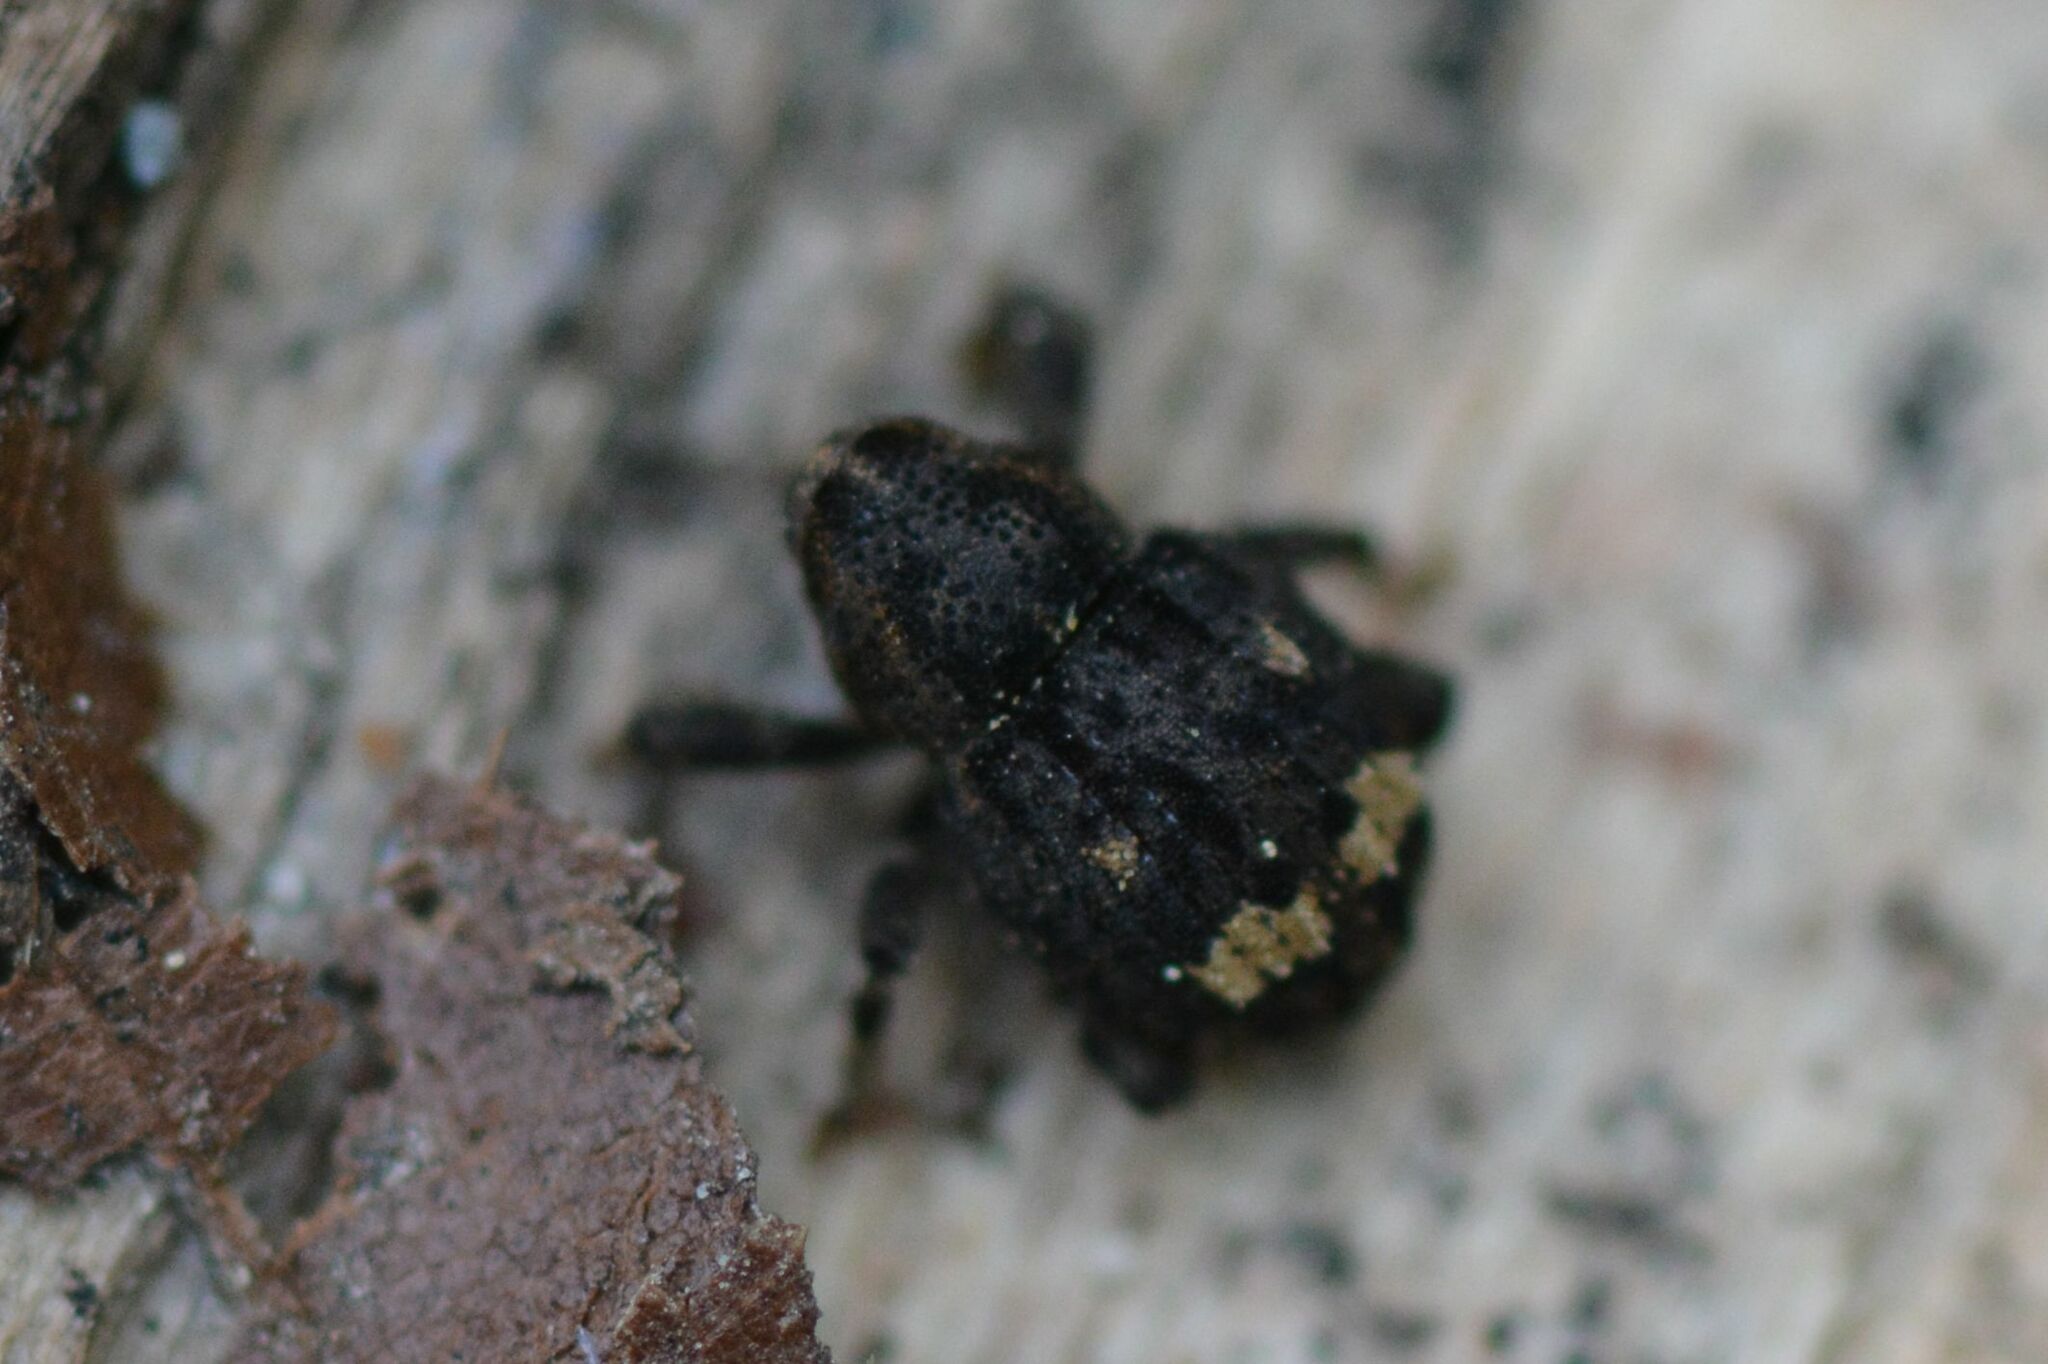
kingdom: Animalia
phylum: Arthropoda
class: Insecta
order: Coleoptera
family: Curculionidae
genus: Echinodera
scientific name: Echinodera hypocrita
